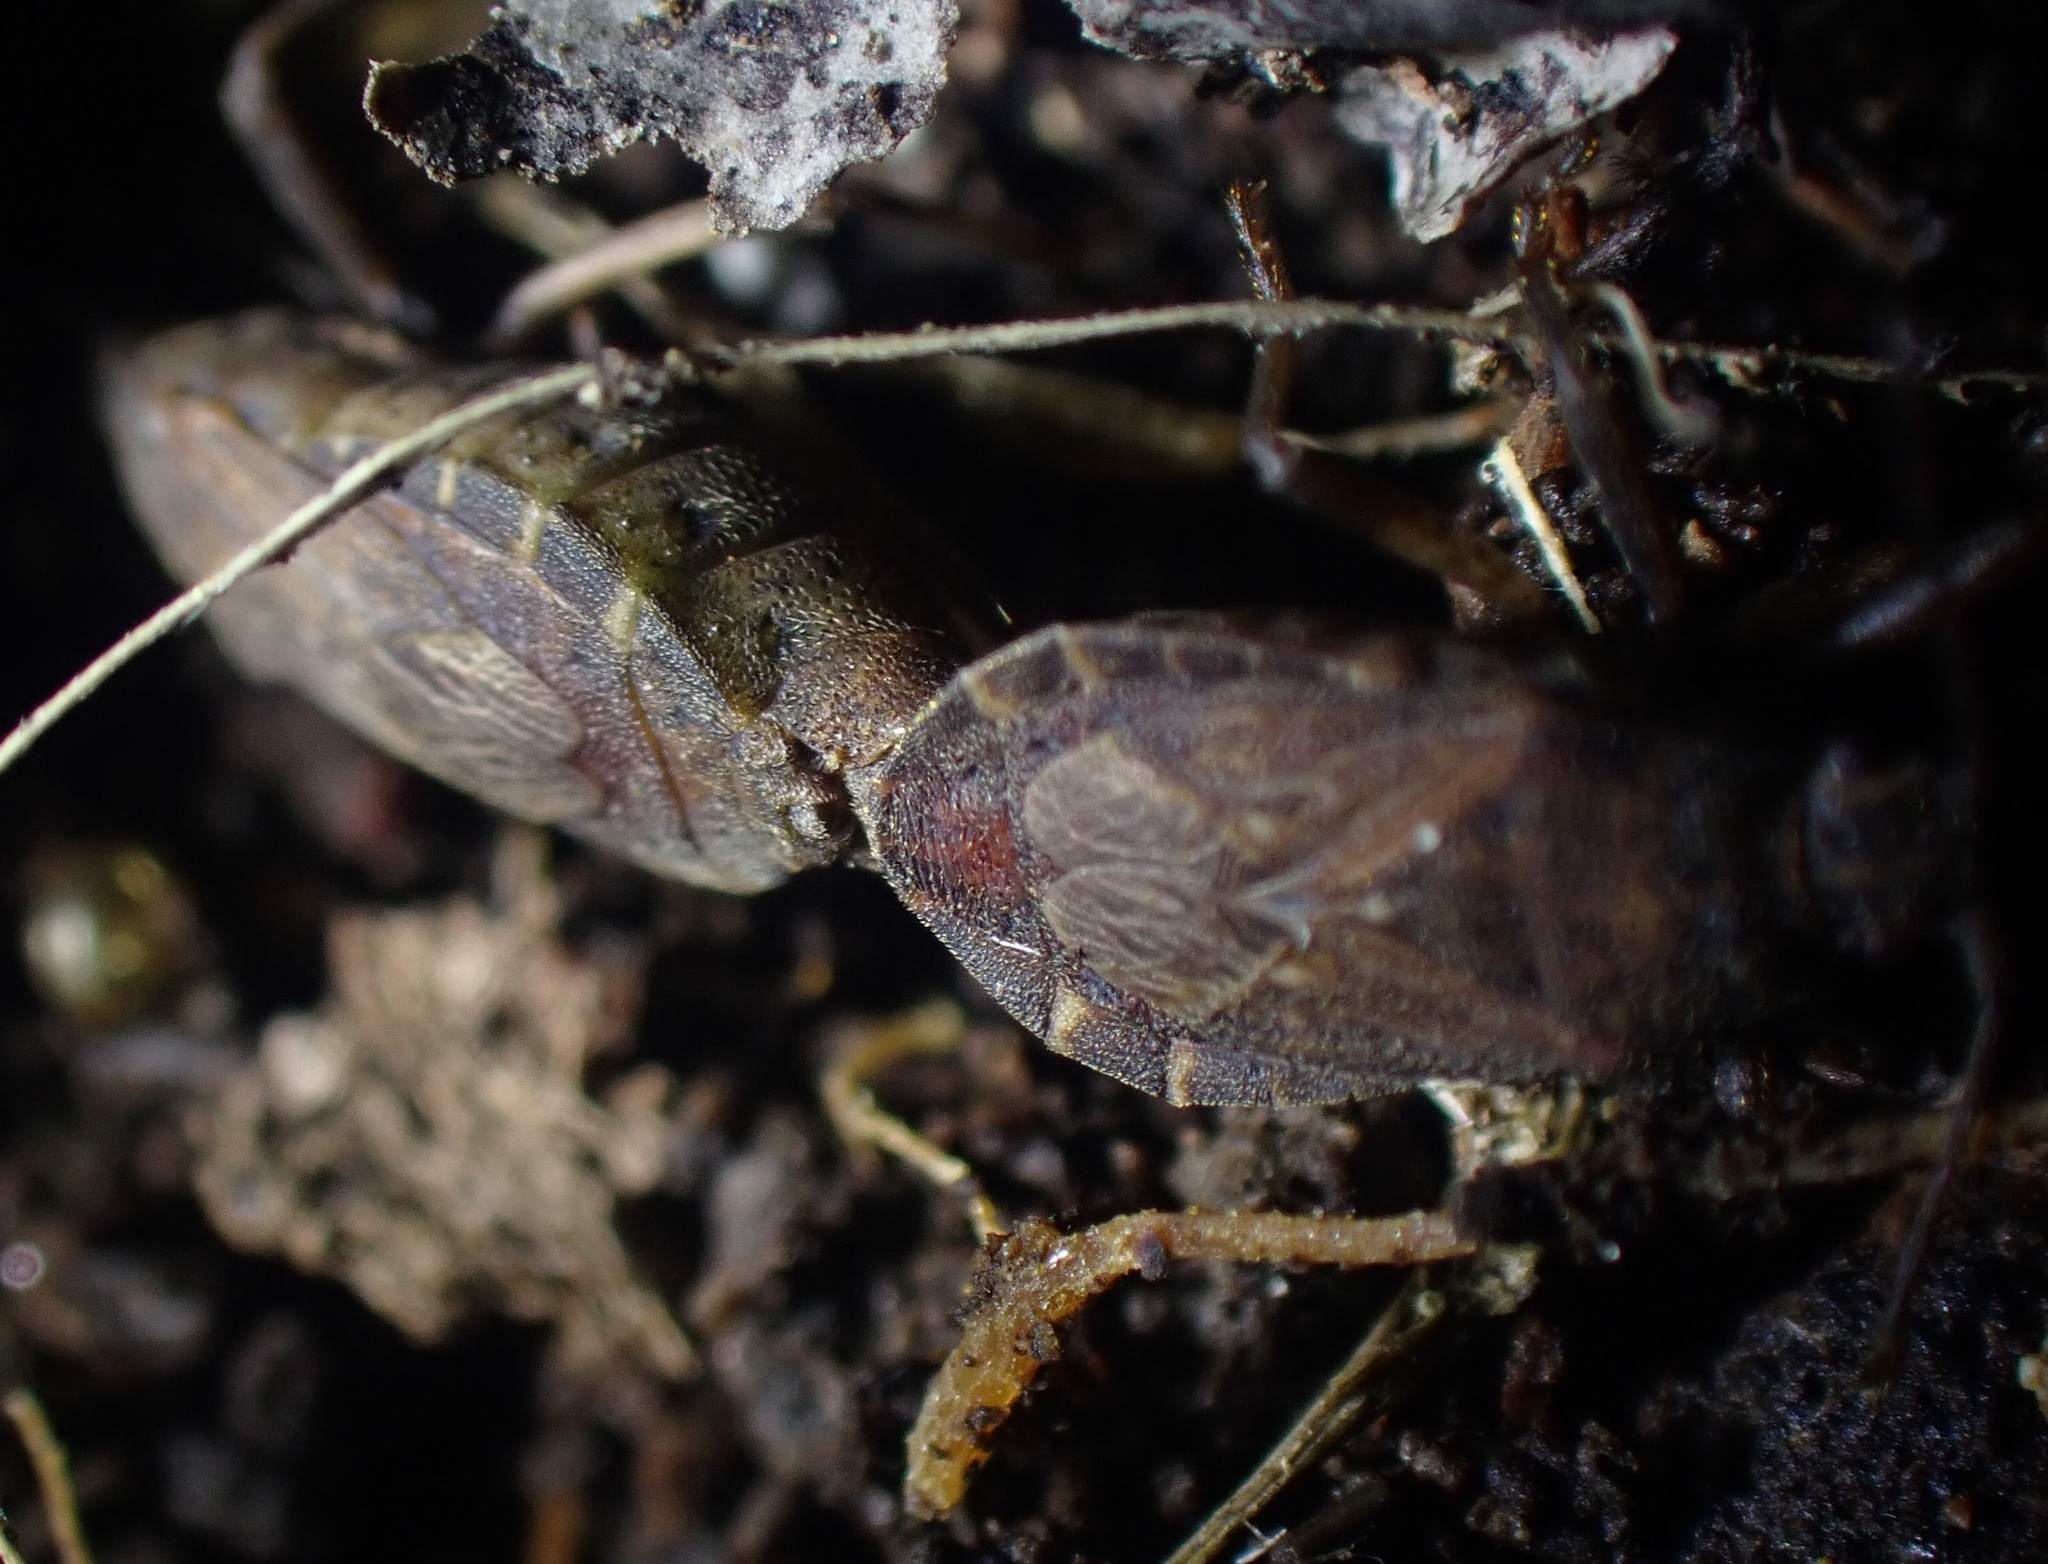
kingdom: Animalia
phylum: Arthropoda
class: Insecta
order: Hemiptera
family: Coreidae
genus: Acantholybas
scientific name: Acantholybas brunneus
